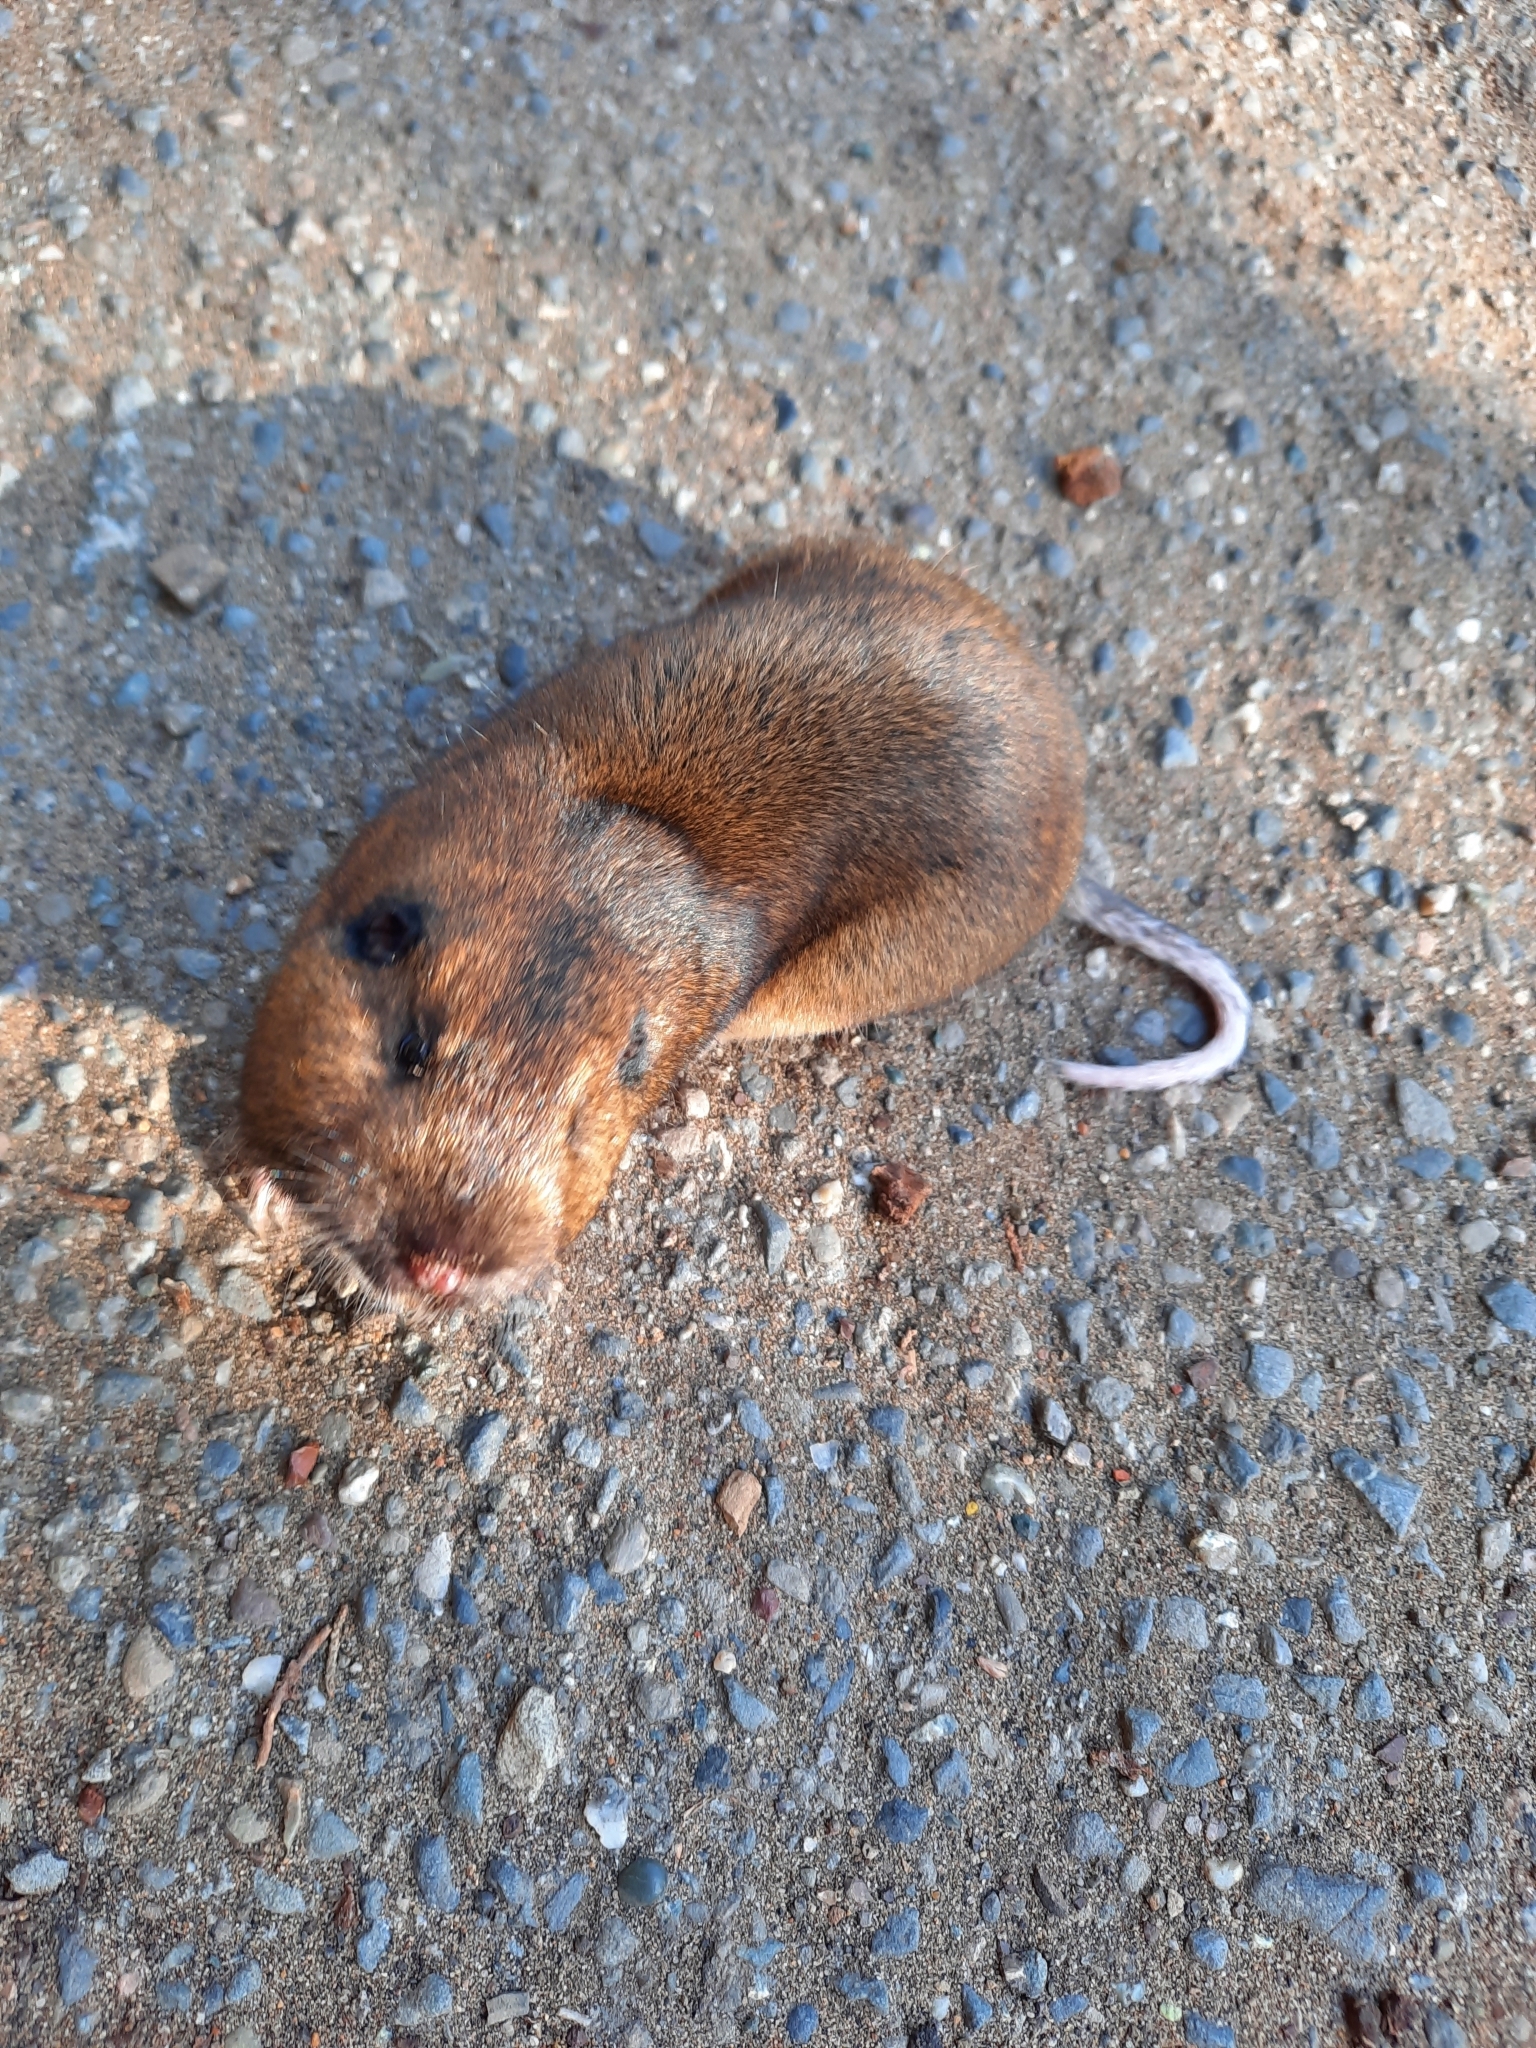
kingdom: Animalia
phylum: Chordata
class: Mammalia
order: Rodentia
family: Geomyidae
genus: Thomomys
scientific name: Thomomys bottae
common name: Botta's pocket gopher
